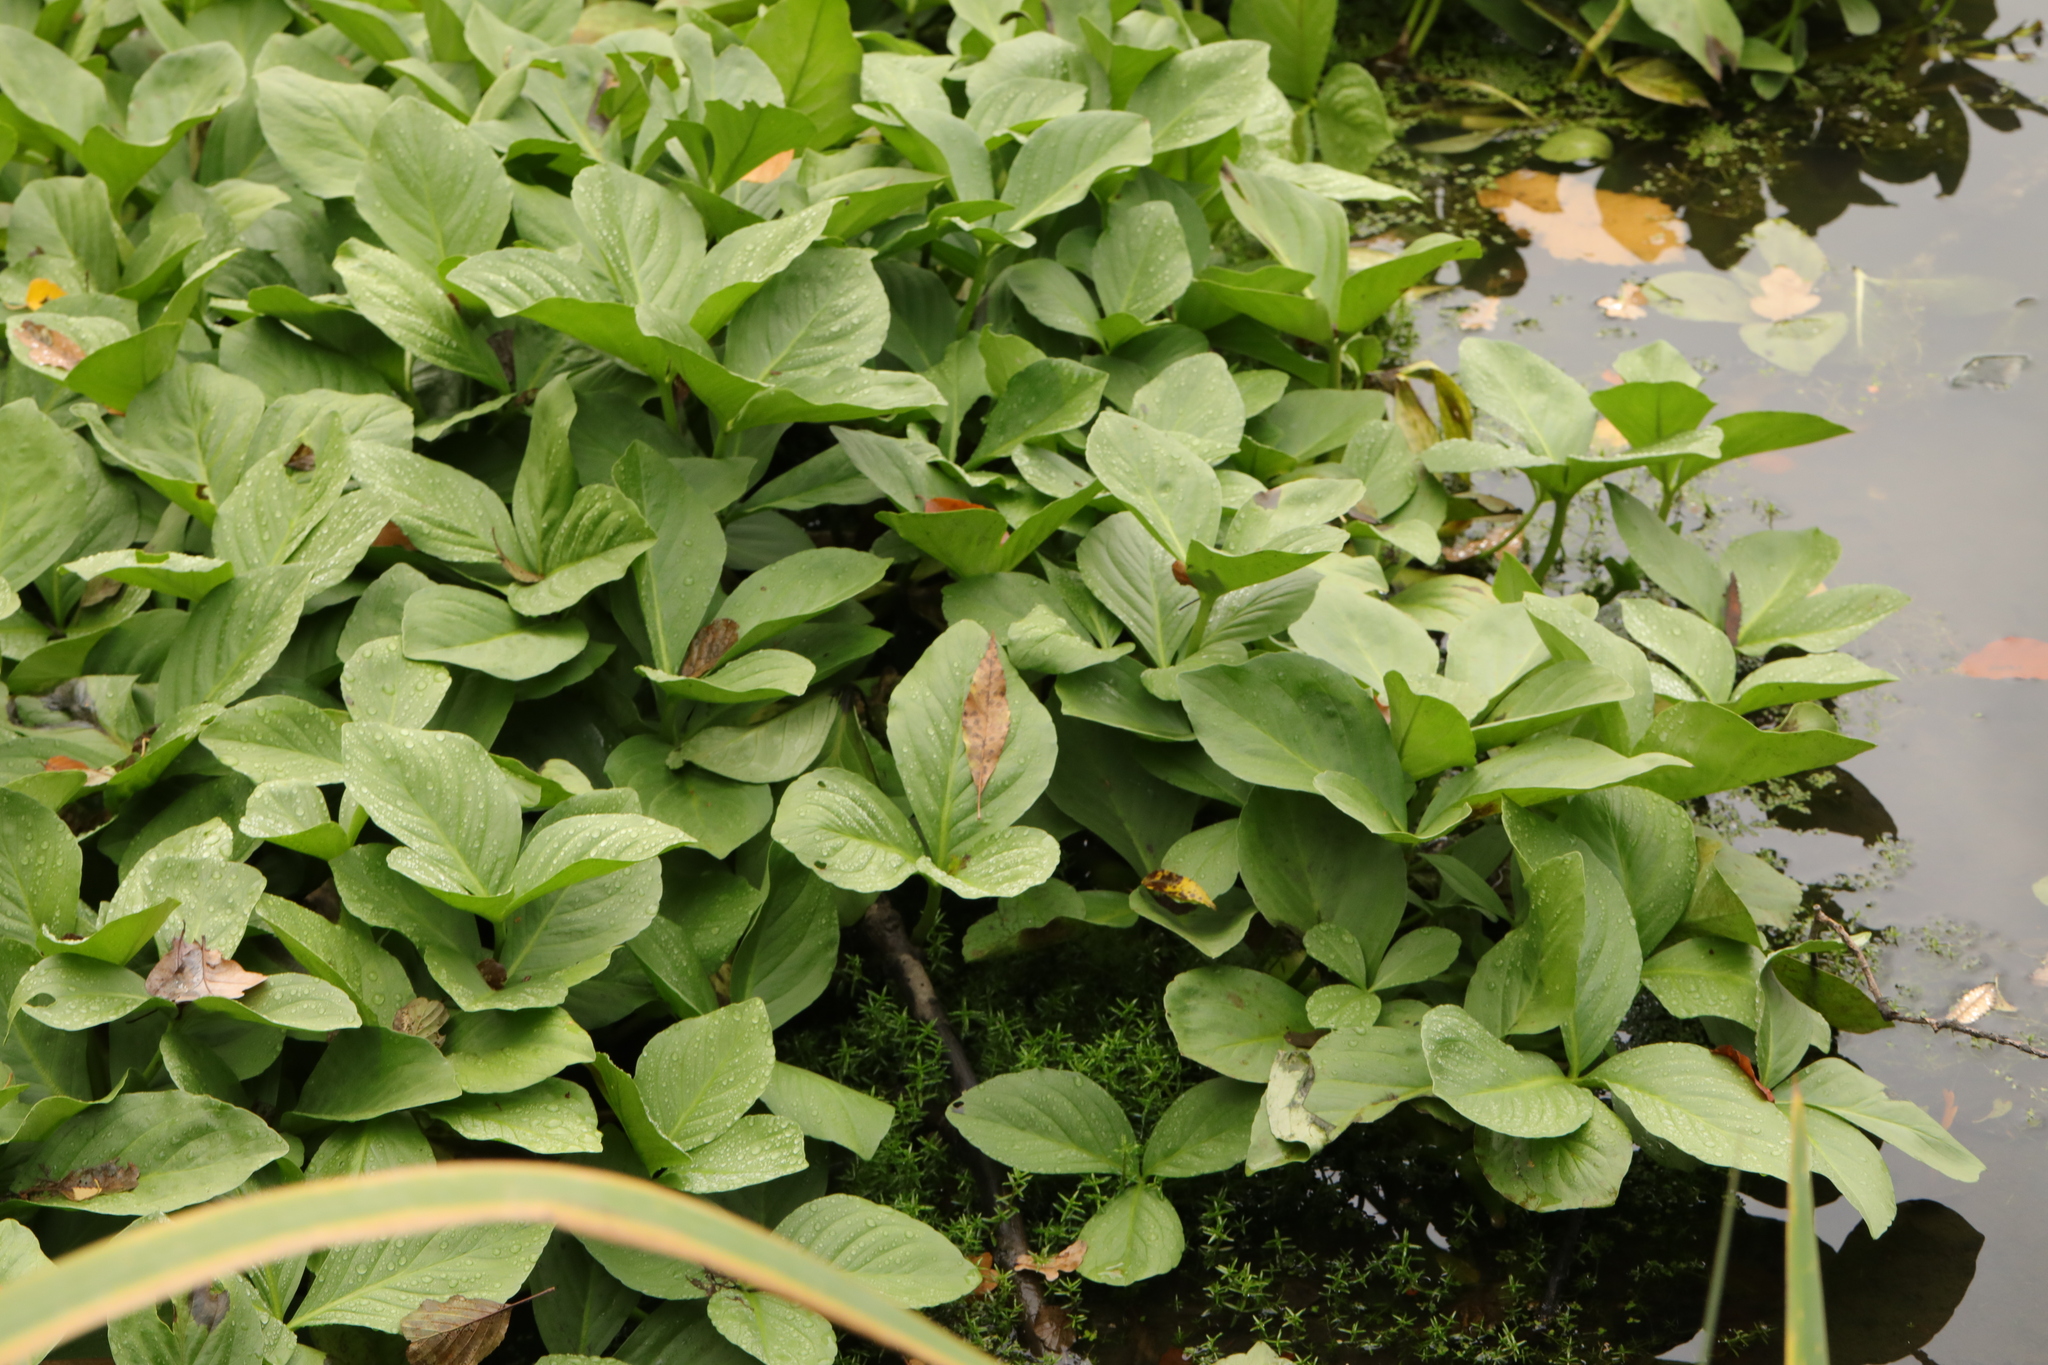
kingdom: Plantae
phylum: Tracheophyta
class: Magnoliopsida
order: Asterales
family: Menyanthaceae
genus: Menyanthes
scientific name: Menyanthes trifoliata
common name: Bogbean
